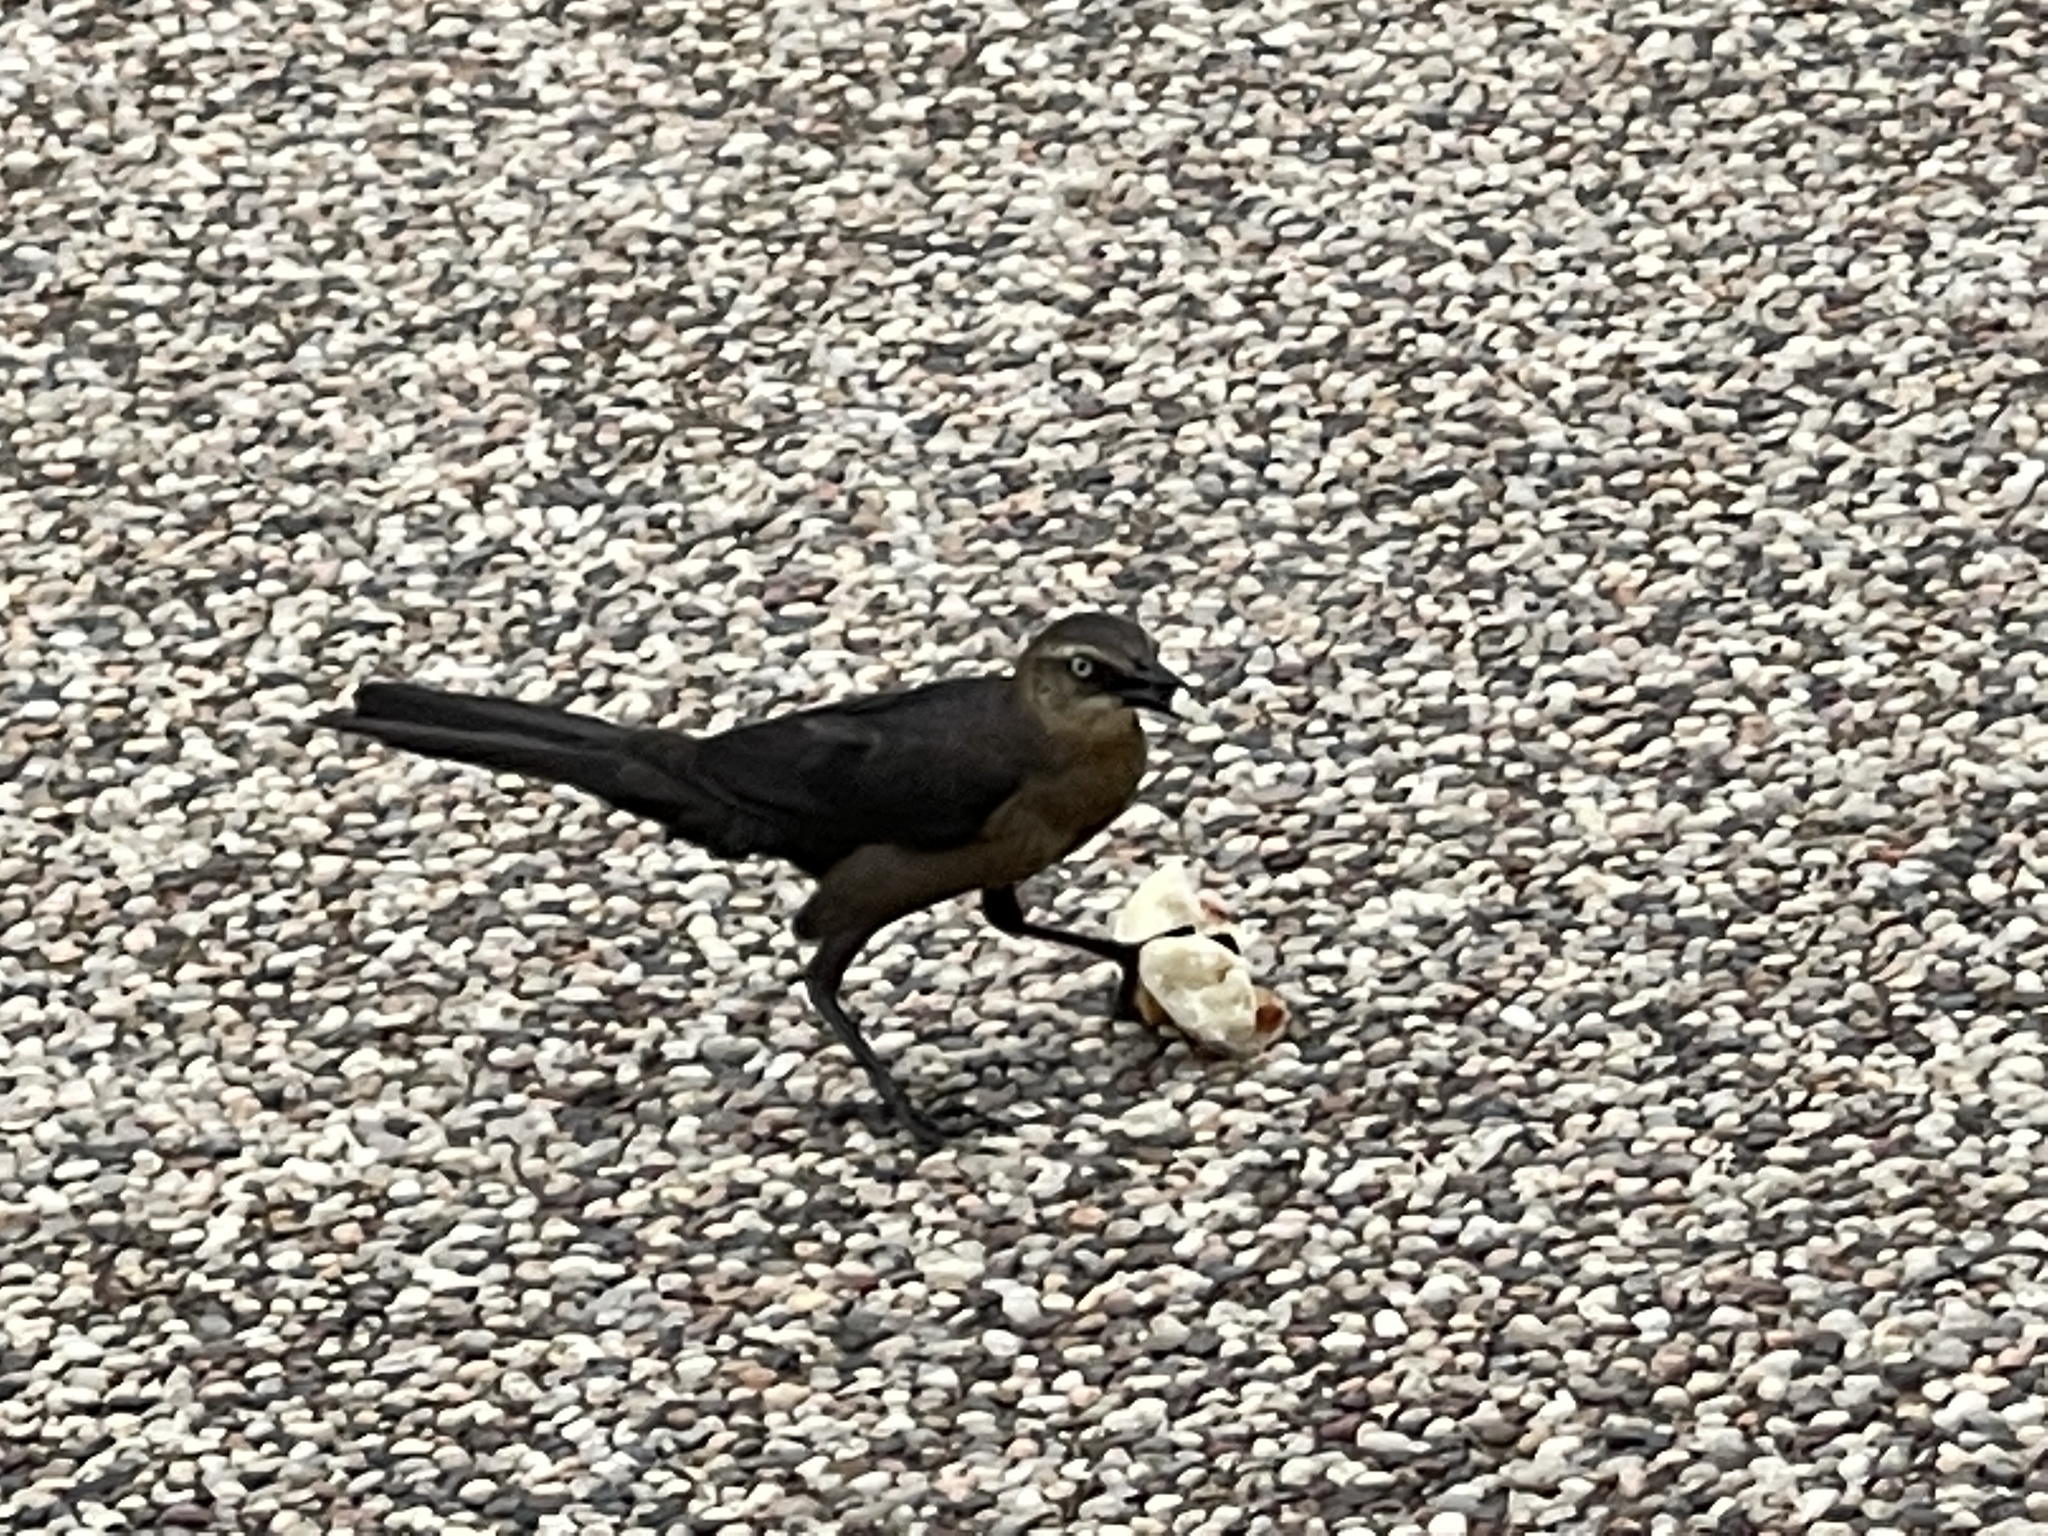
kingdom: Animalia
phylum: Chordata
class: Aves
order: Passeriformes
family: Icteridae
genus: Quiscalus
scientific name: Quiscalus mexicanus
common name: Great-tailed grackle
